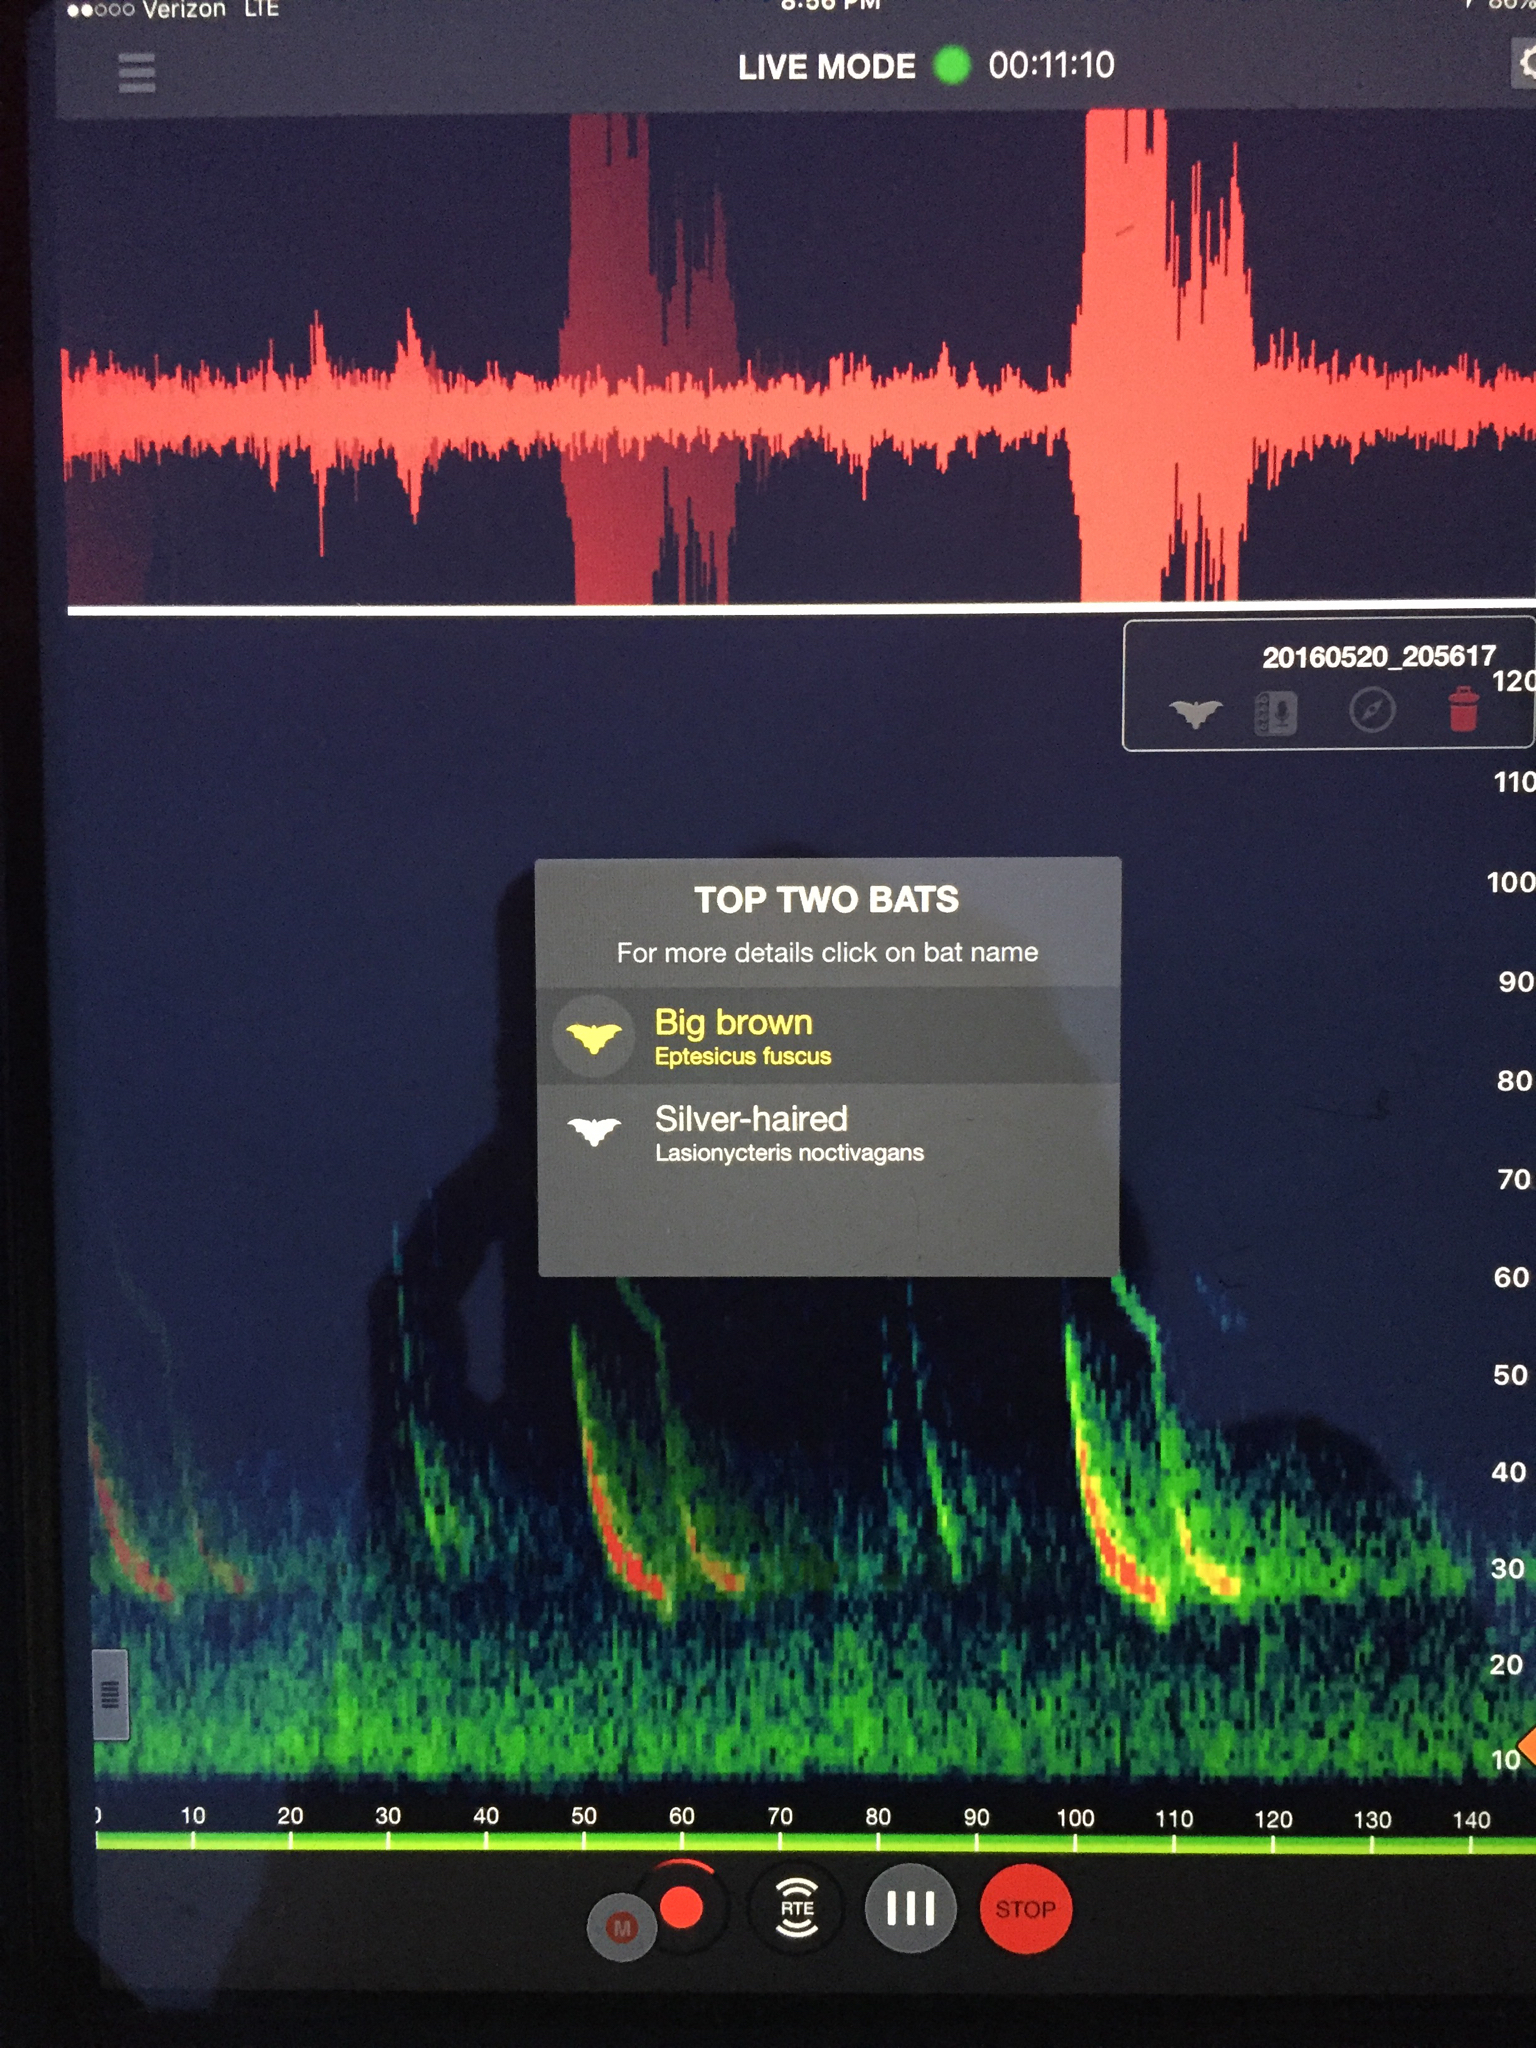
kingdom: Animalia
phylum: Chordata
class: Mammalia
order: Chiroptera
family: Vespertilionidae
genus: Eptesicus
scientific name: Eptesicus fuscus
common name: Big brown bat
